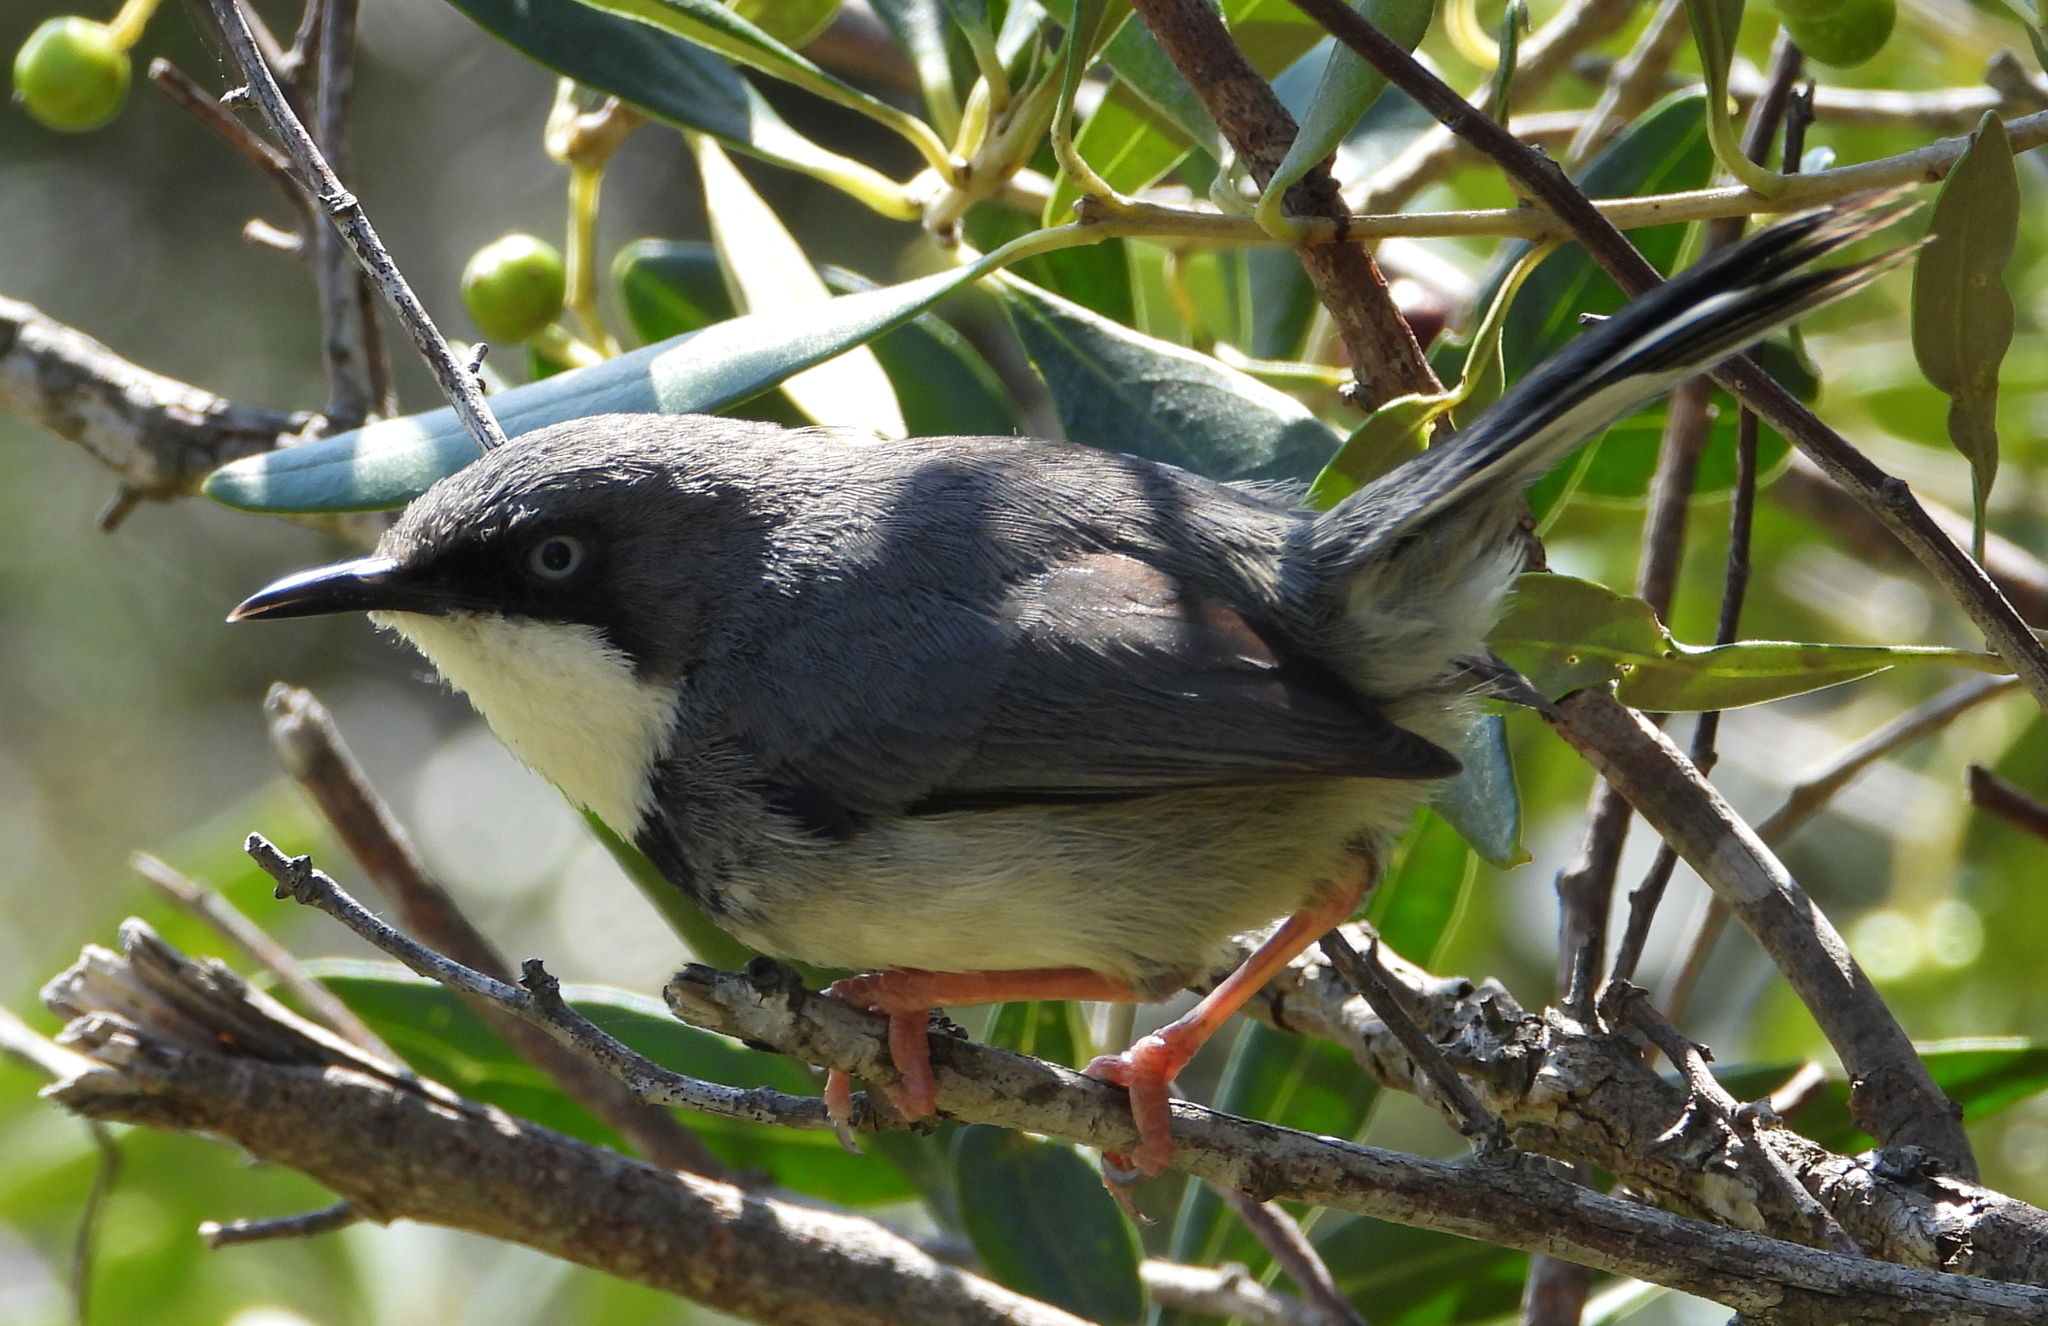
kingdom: Animalia
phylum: Chordata
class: Aves
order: Passeriformes
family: Cisticolidae
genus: Apalis
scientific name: Apalis thoracica
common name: Bar-throated apalis
